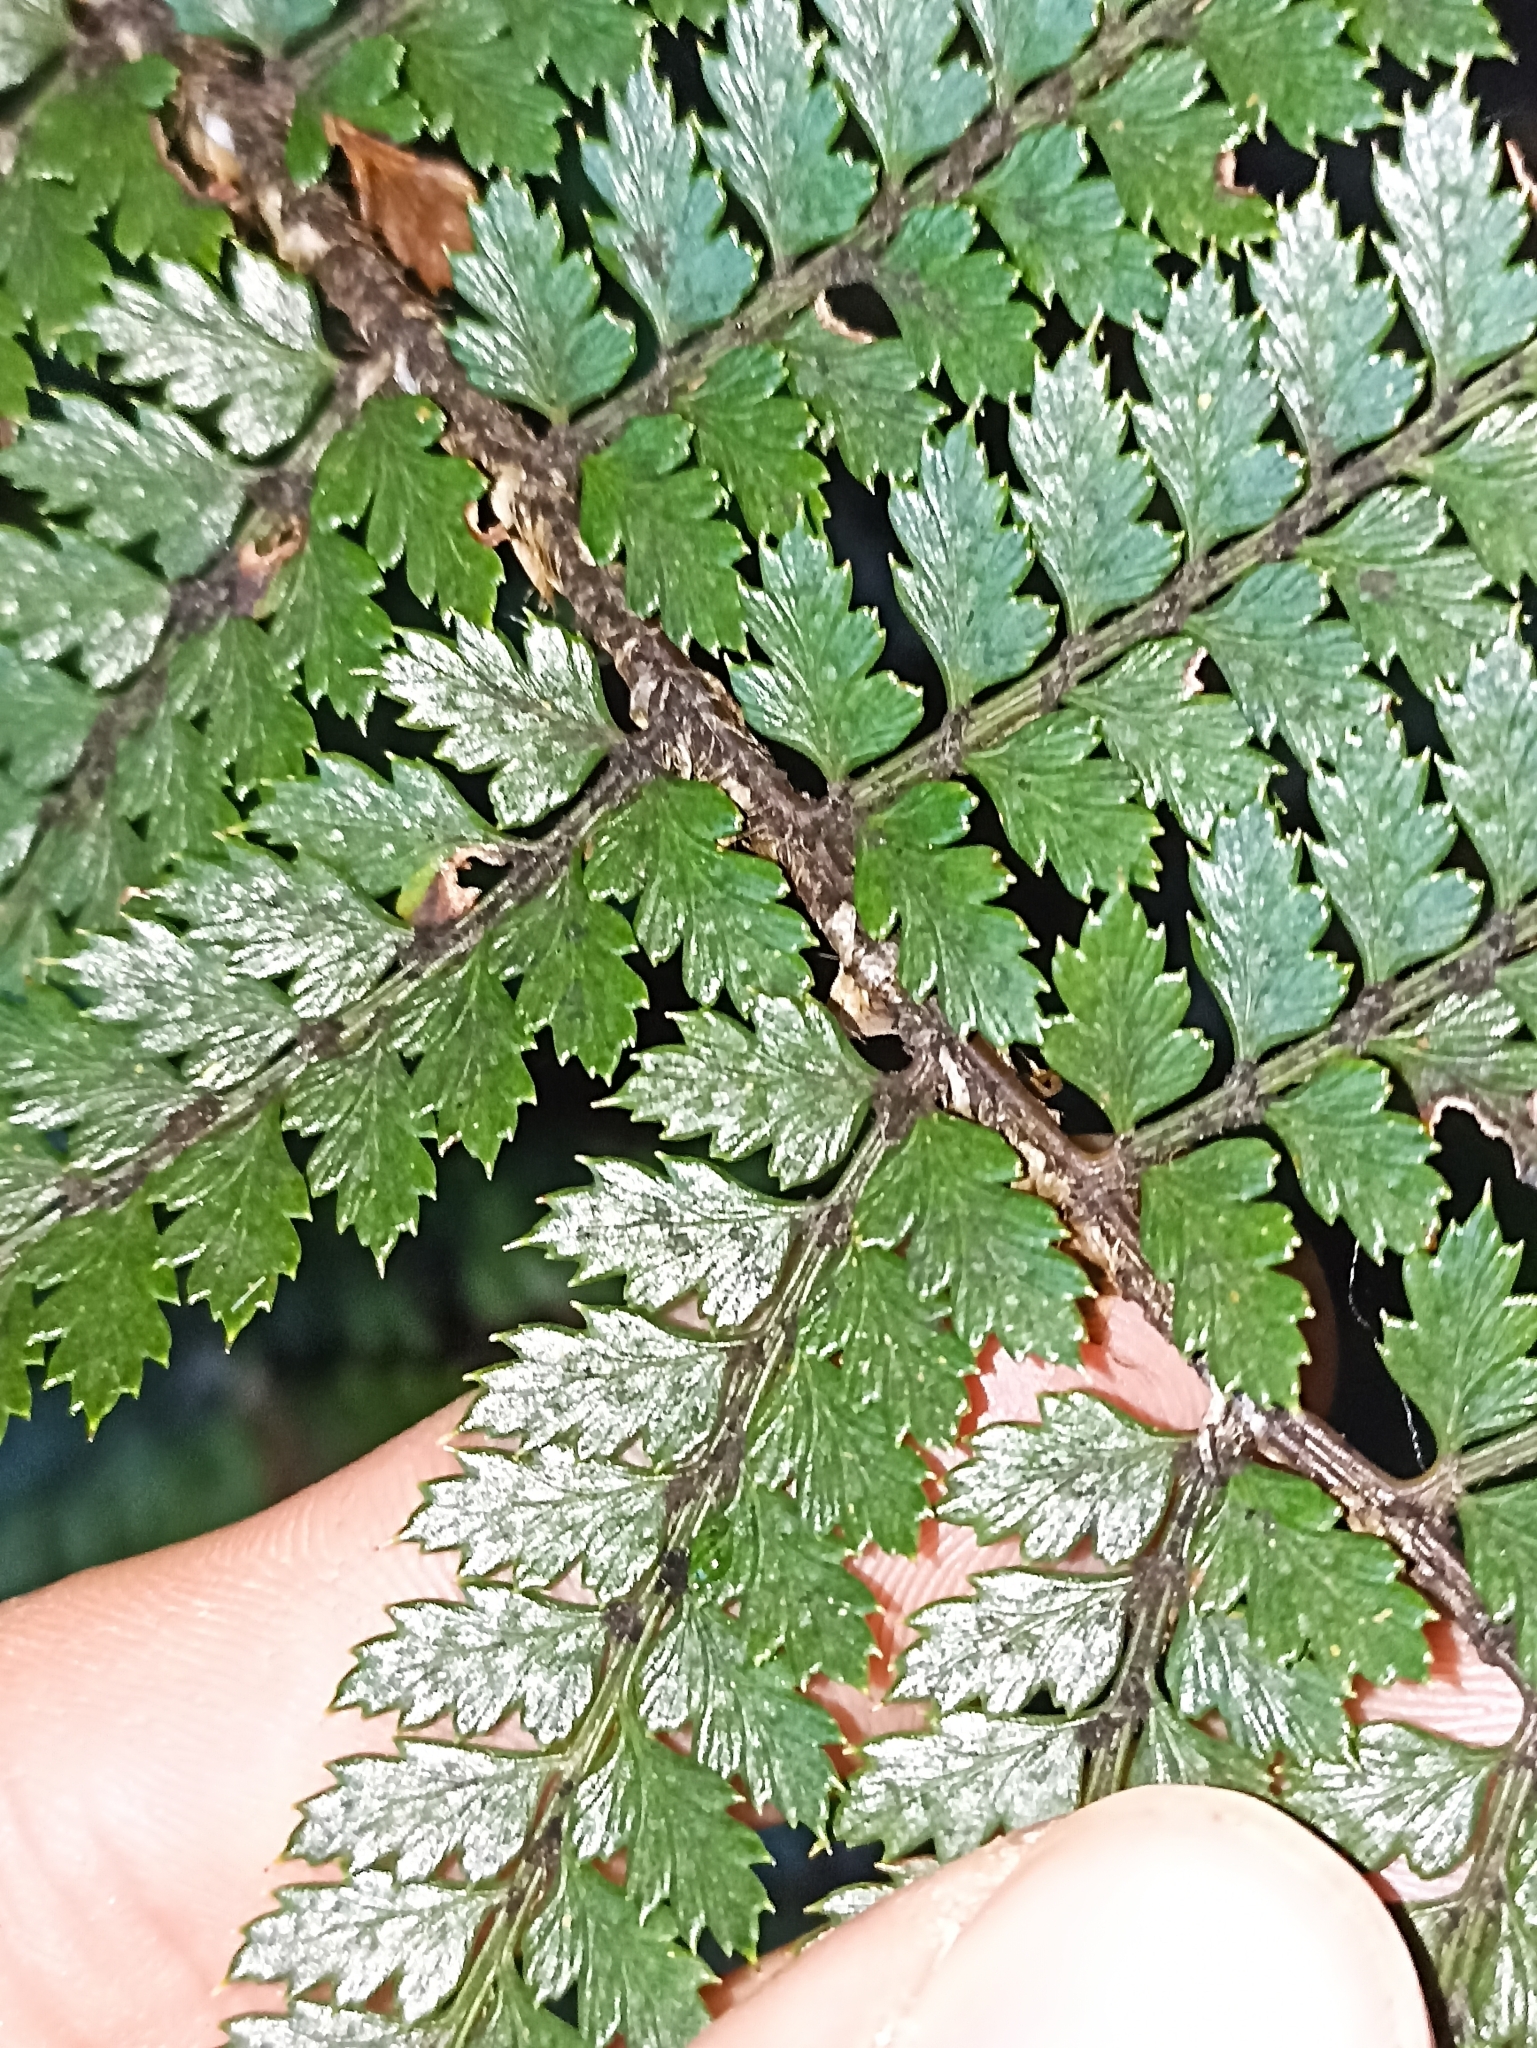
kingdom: Plantae
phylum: Tracheophyta
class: Polypodiopsida
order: Polypodiales
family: Dryopteridaceae
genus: Polystichum
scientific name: Polystichum vestitum
